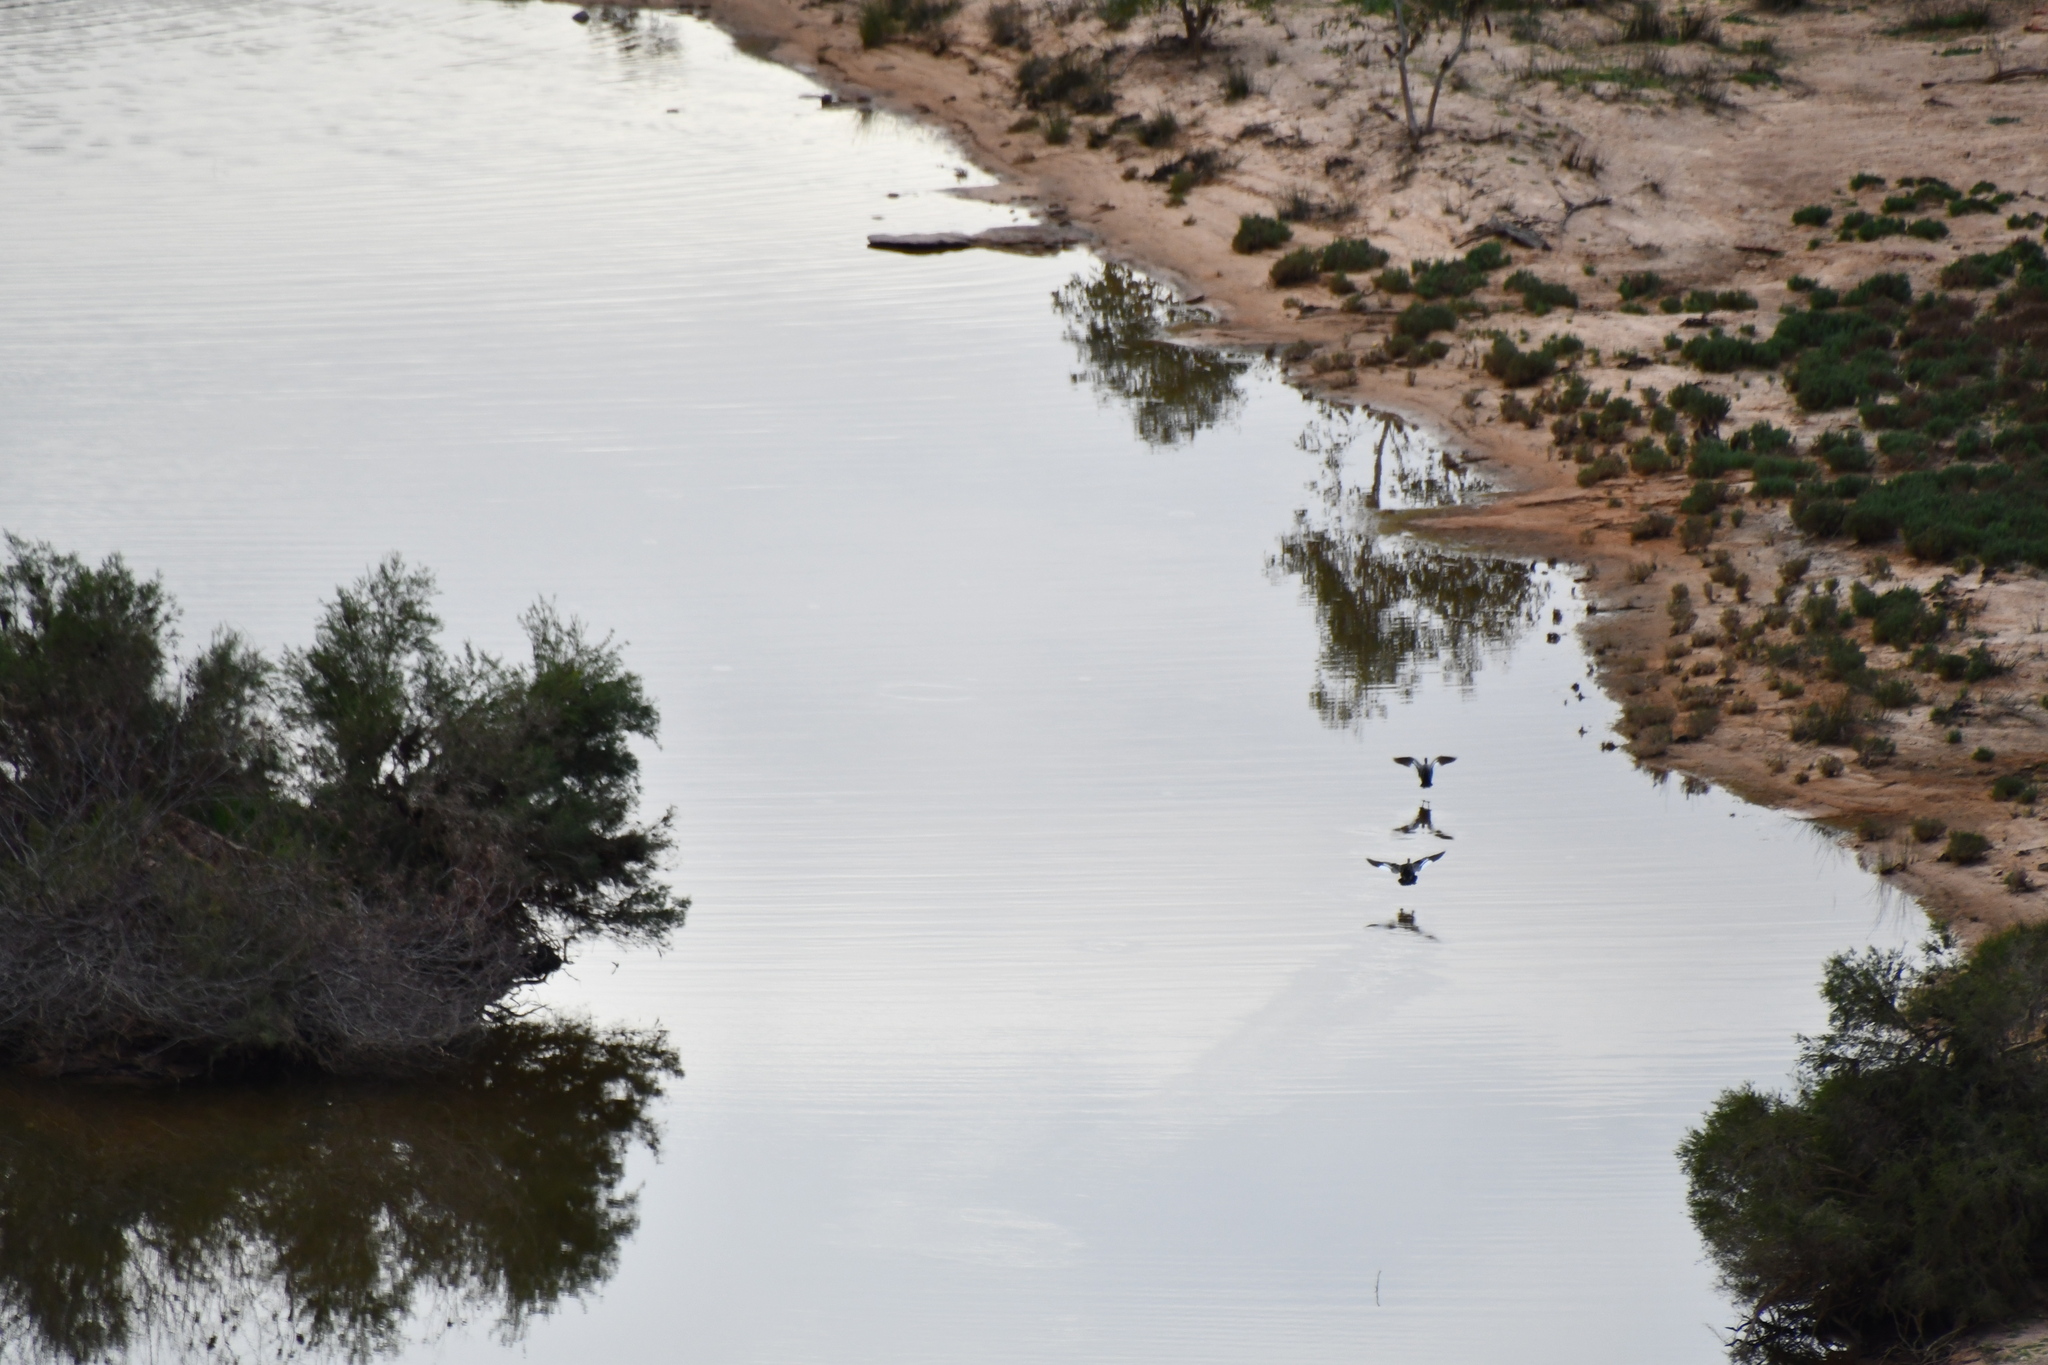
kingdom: Animalia
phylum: Chordata
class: Aves
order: Anseriformes
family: Anatidae
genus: Chenonetta
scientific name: Chenonetta jubata
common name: Maned duck
